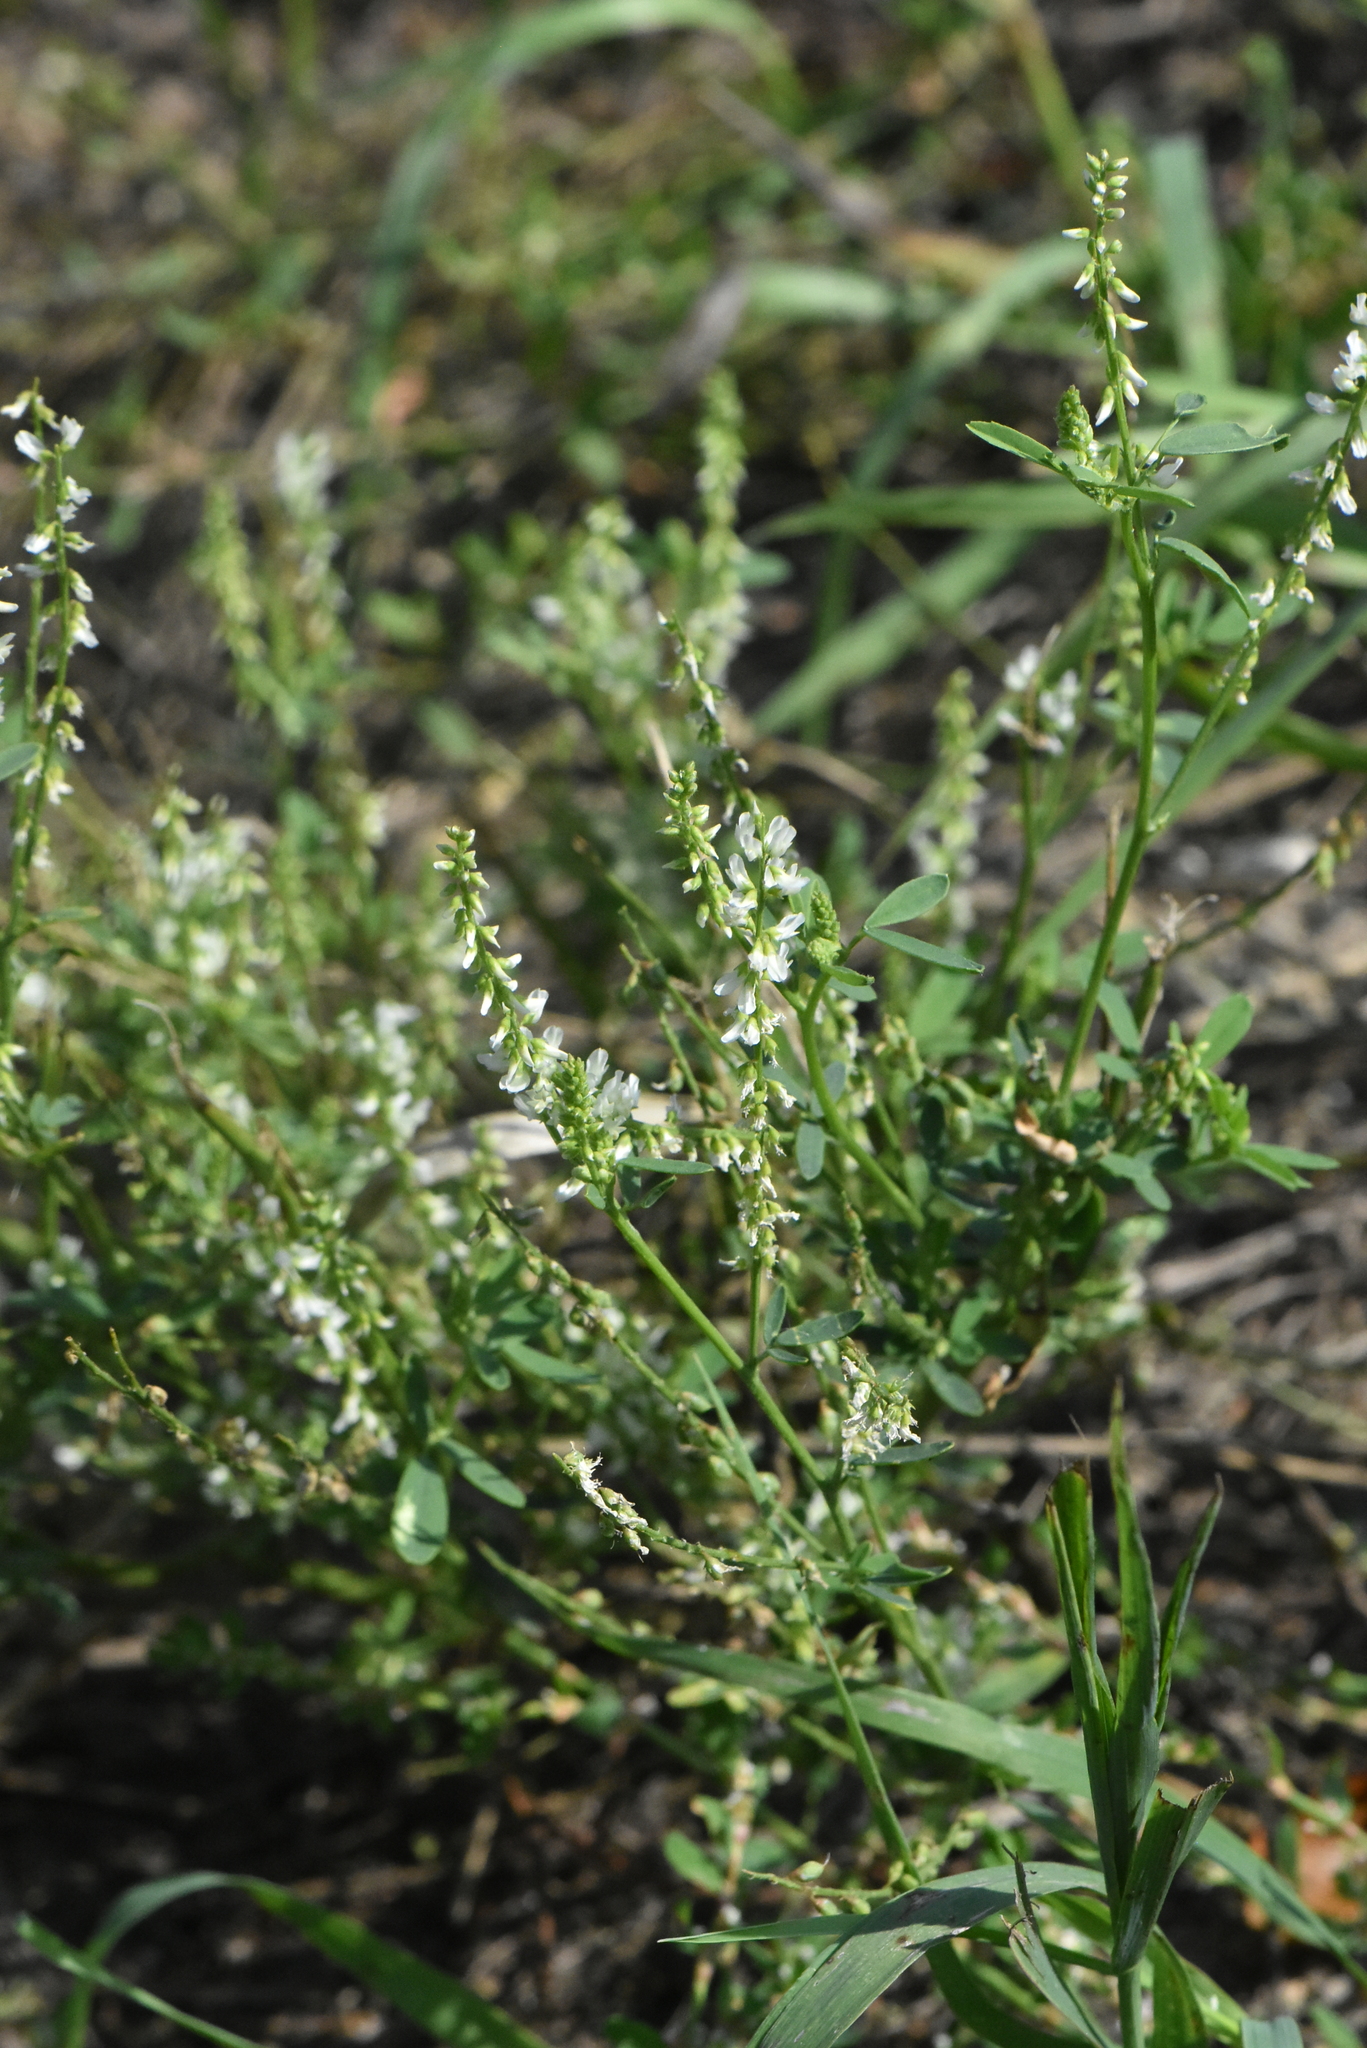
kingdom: Plantae
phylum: Tracheophyta
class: Magnoliopsida
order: Fabales
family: Fabaceae
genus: Melilotus
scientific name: Melilotus albus
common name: White melilot
